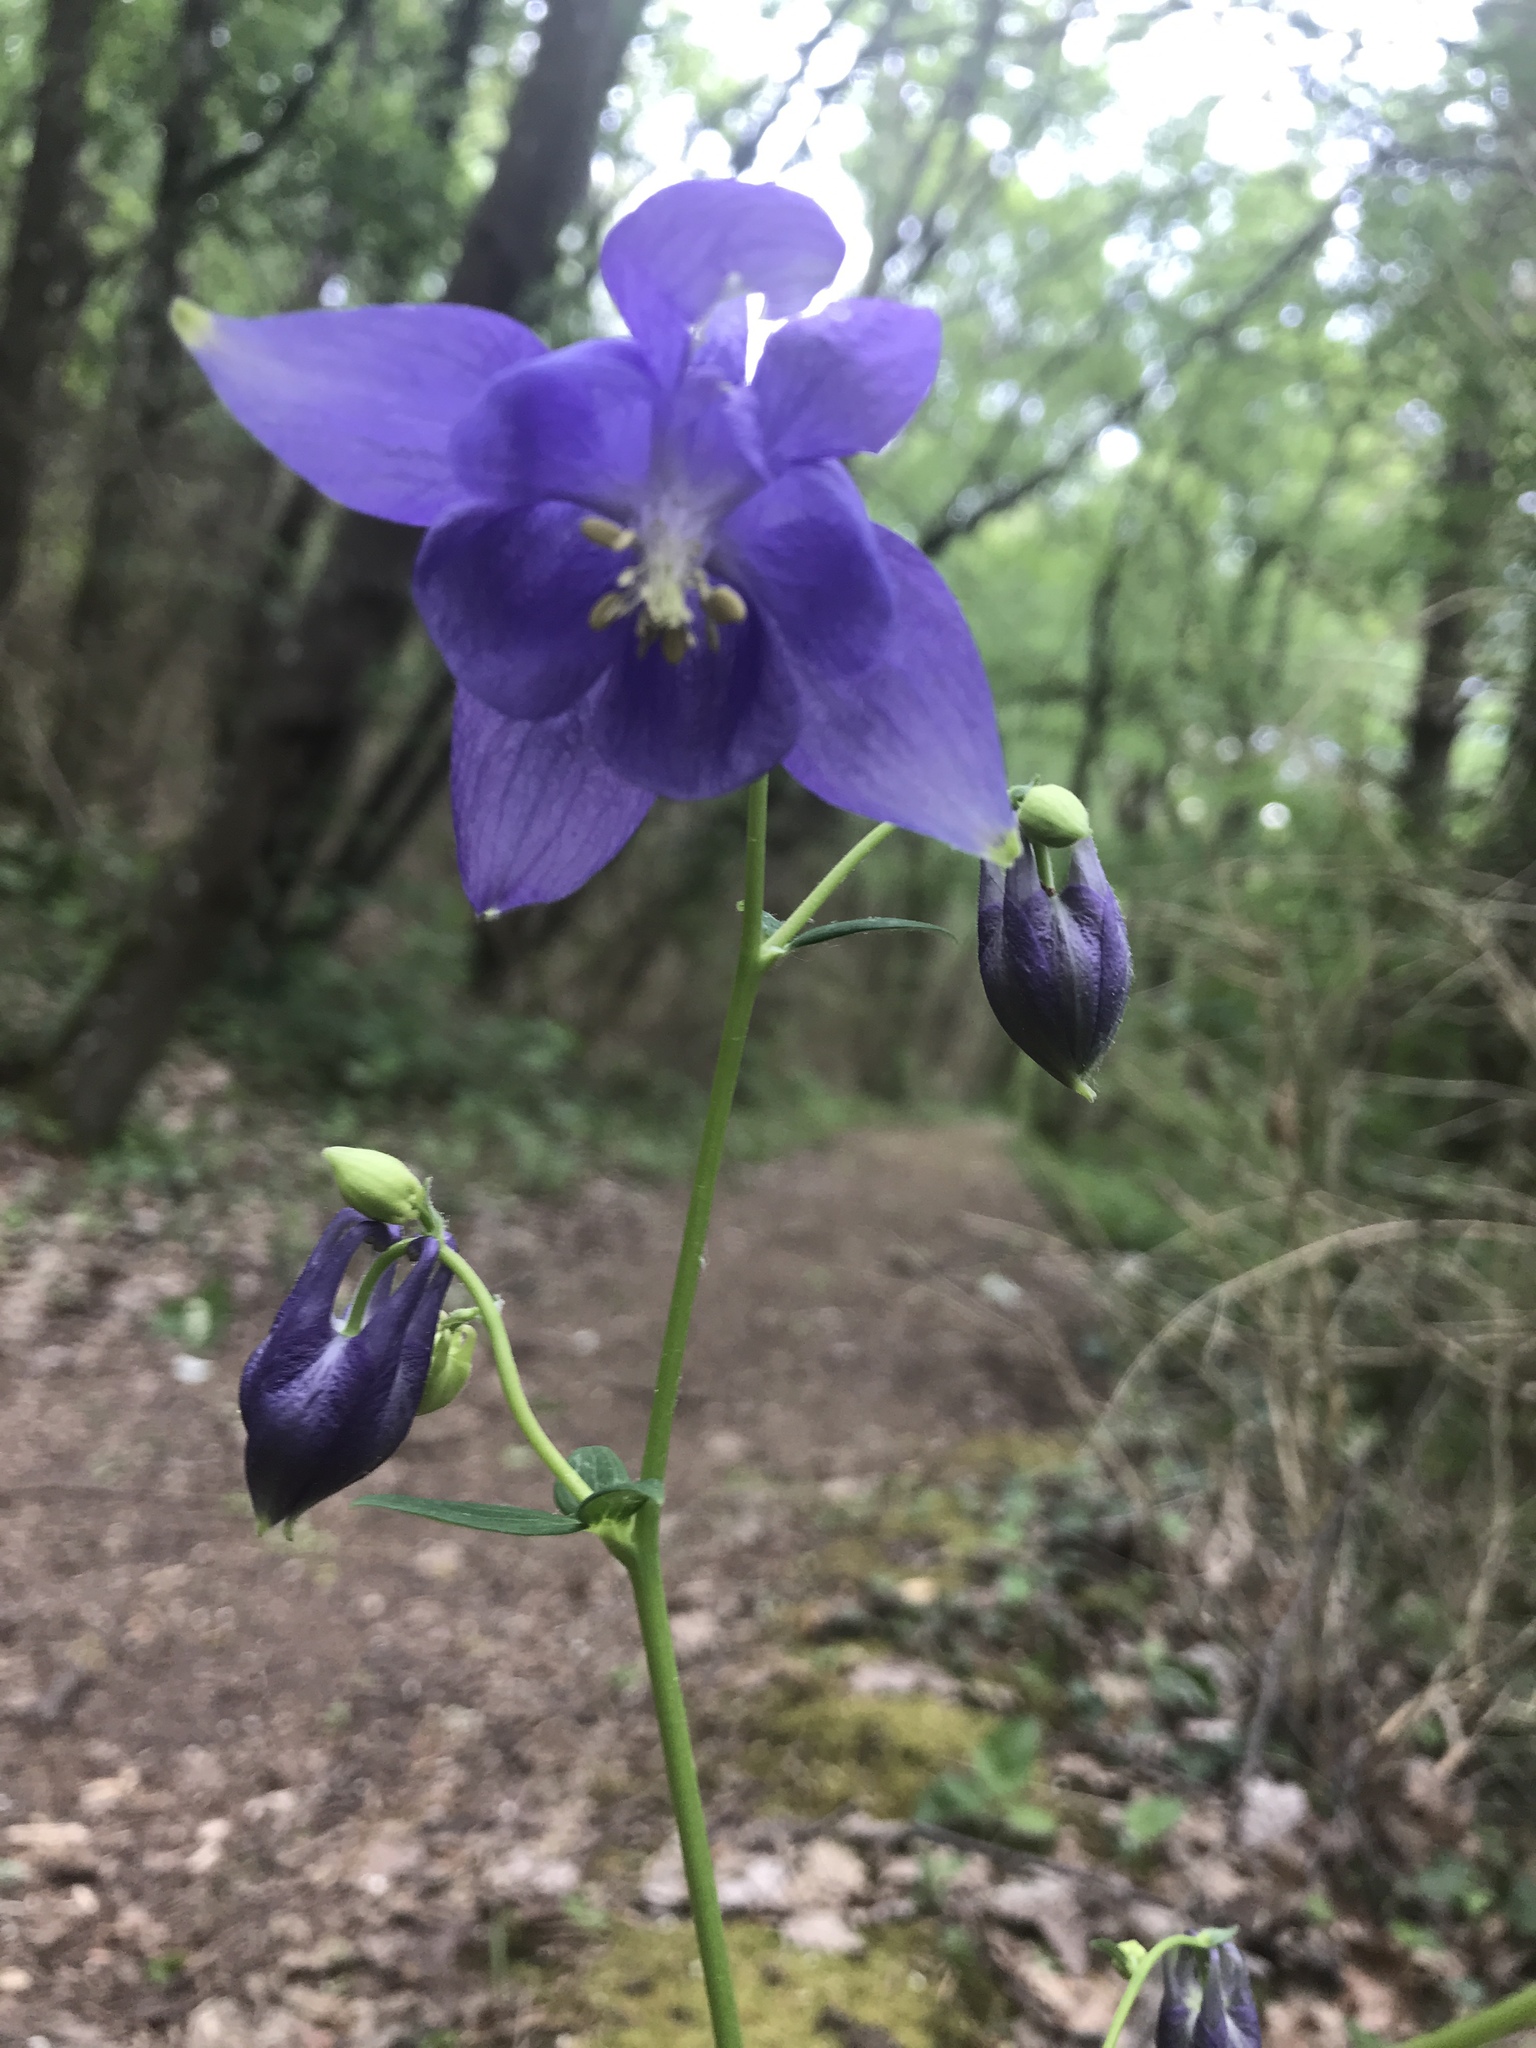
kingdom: Plantae
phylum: Tracheophyta
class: Magnoliopsida
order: Ranunculales
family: Ranunculaceae
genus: Aquilegia
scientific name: Aquilegia vulgaris
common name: Columbine
